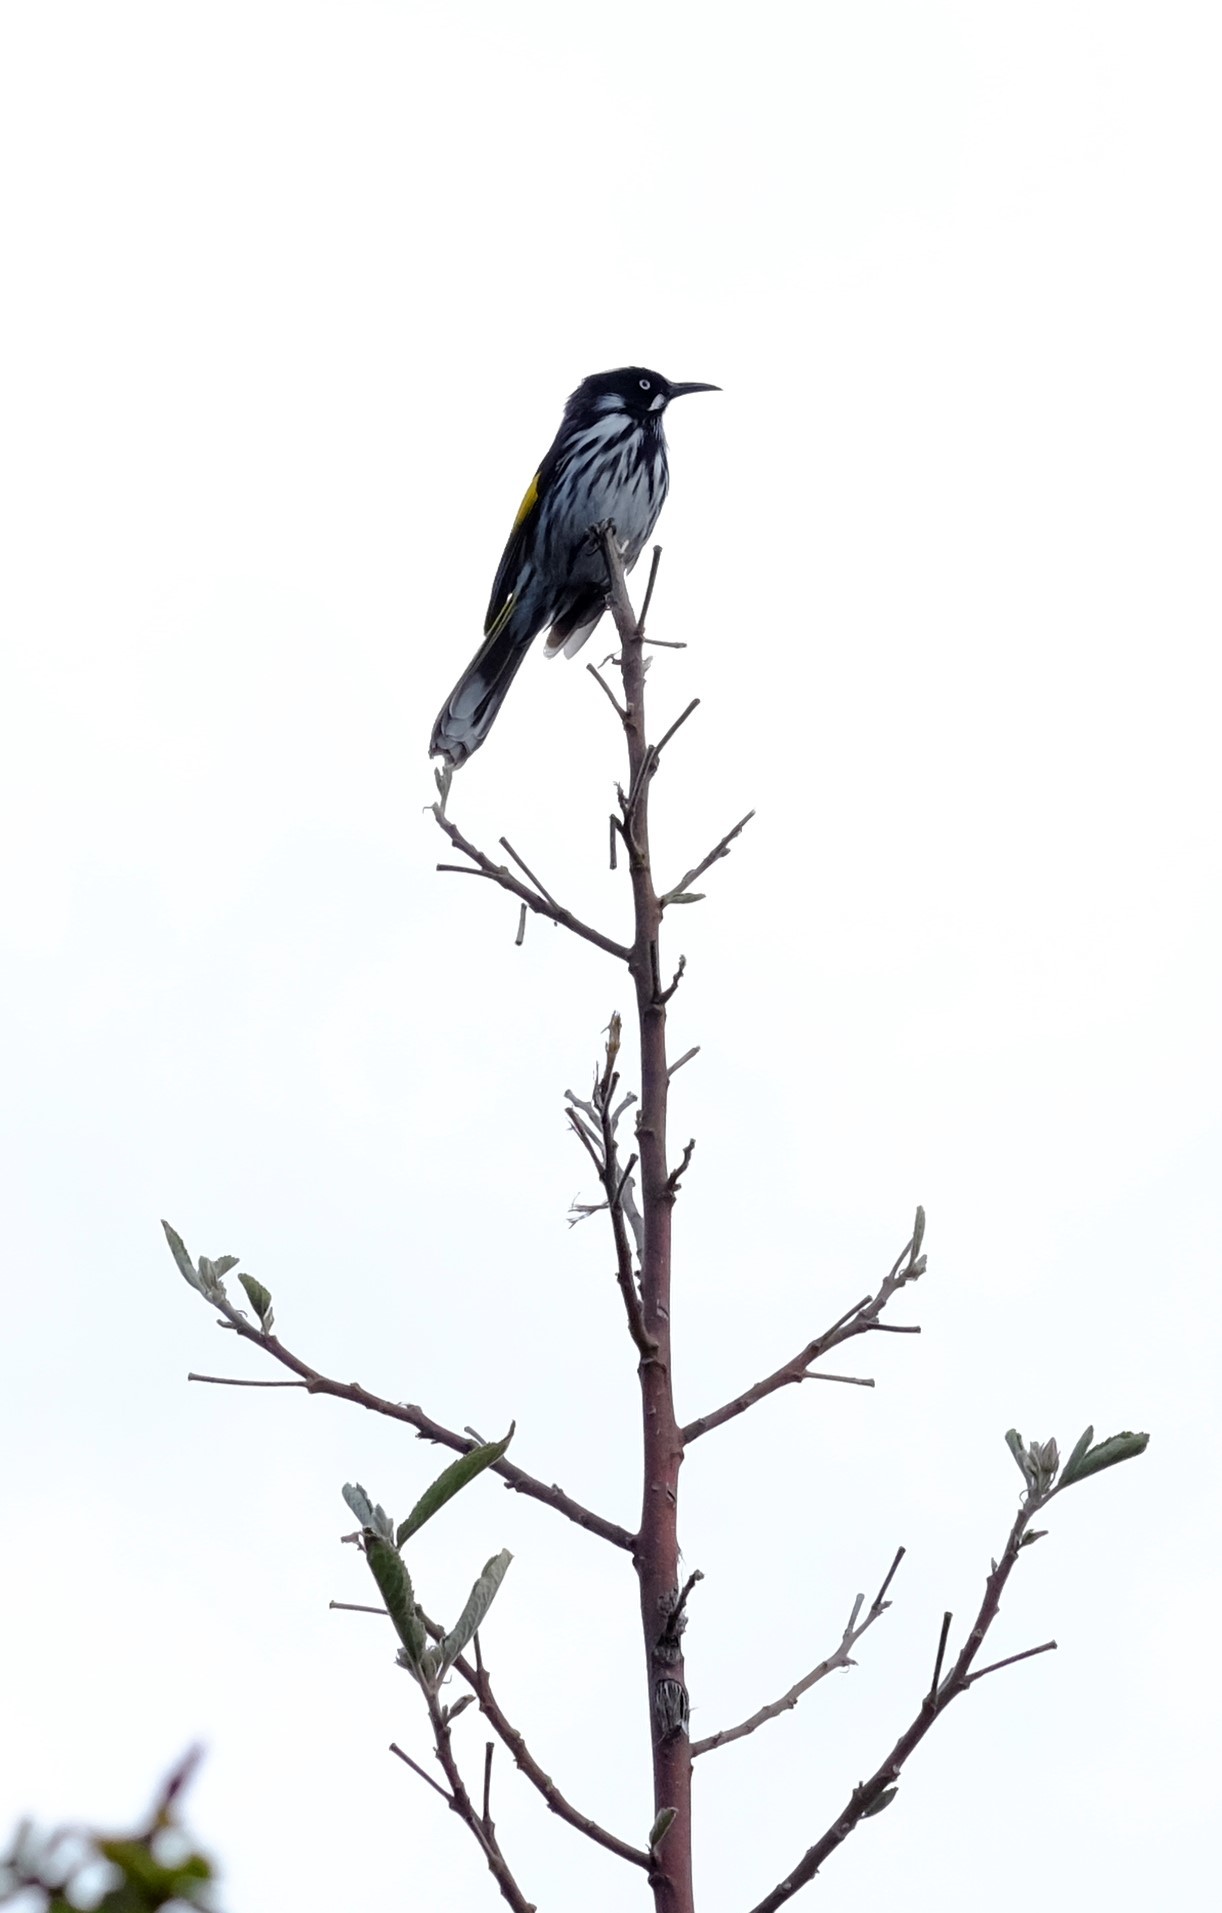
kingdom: Animalia
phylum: Chordata
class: Aves
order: Passeriformes
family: Meliphagidae
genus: Phylidonyris
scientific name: Phylidonyris novaehollandiae
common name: New holland honeyeater
